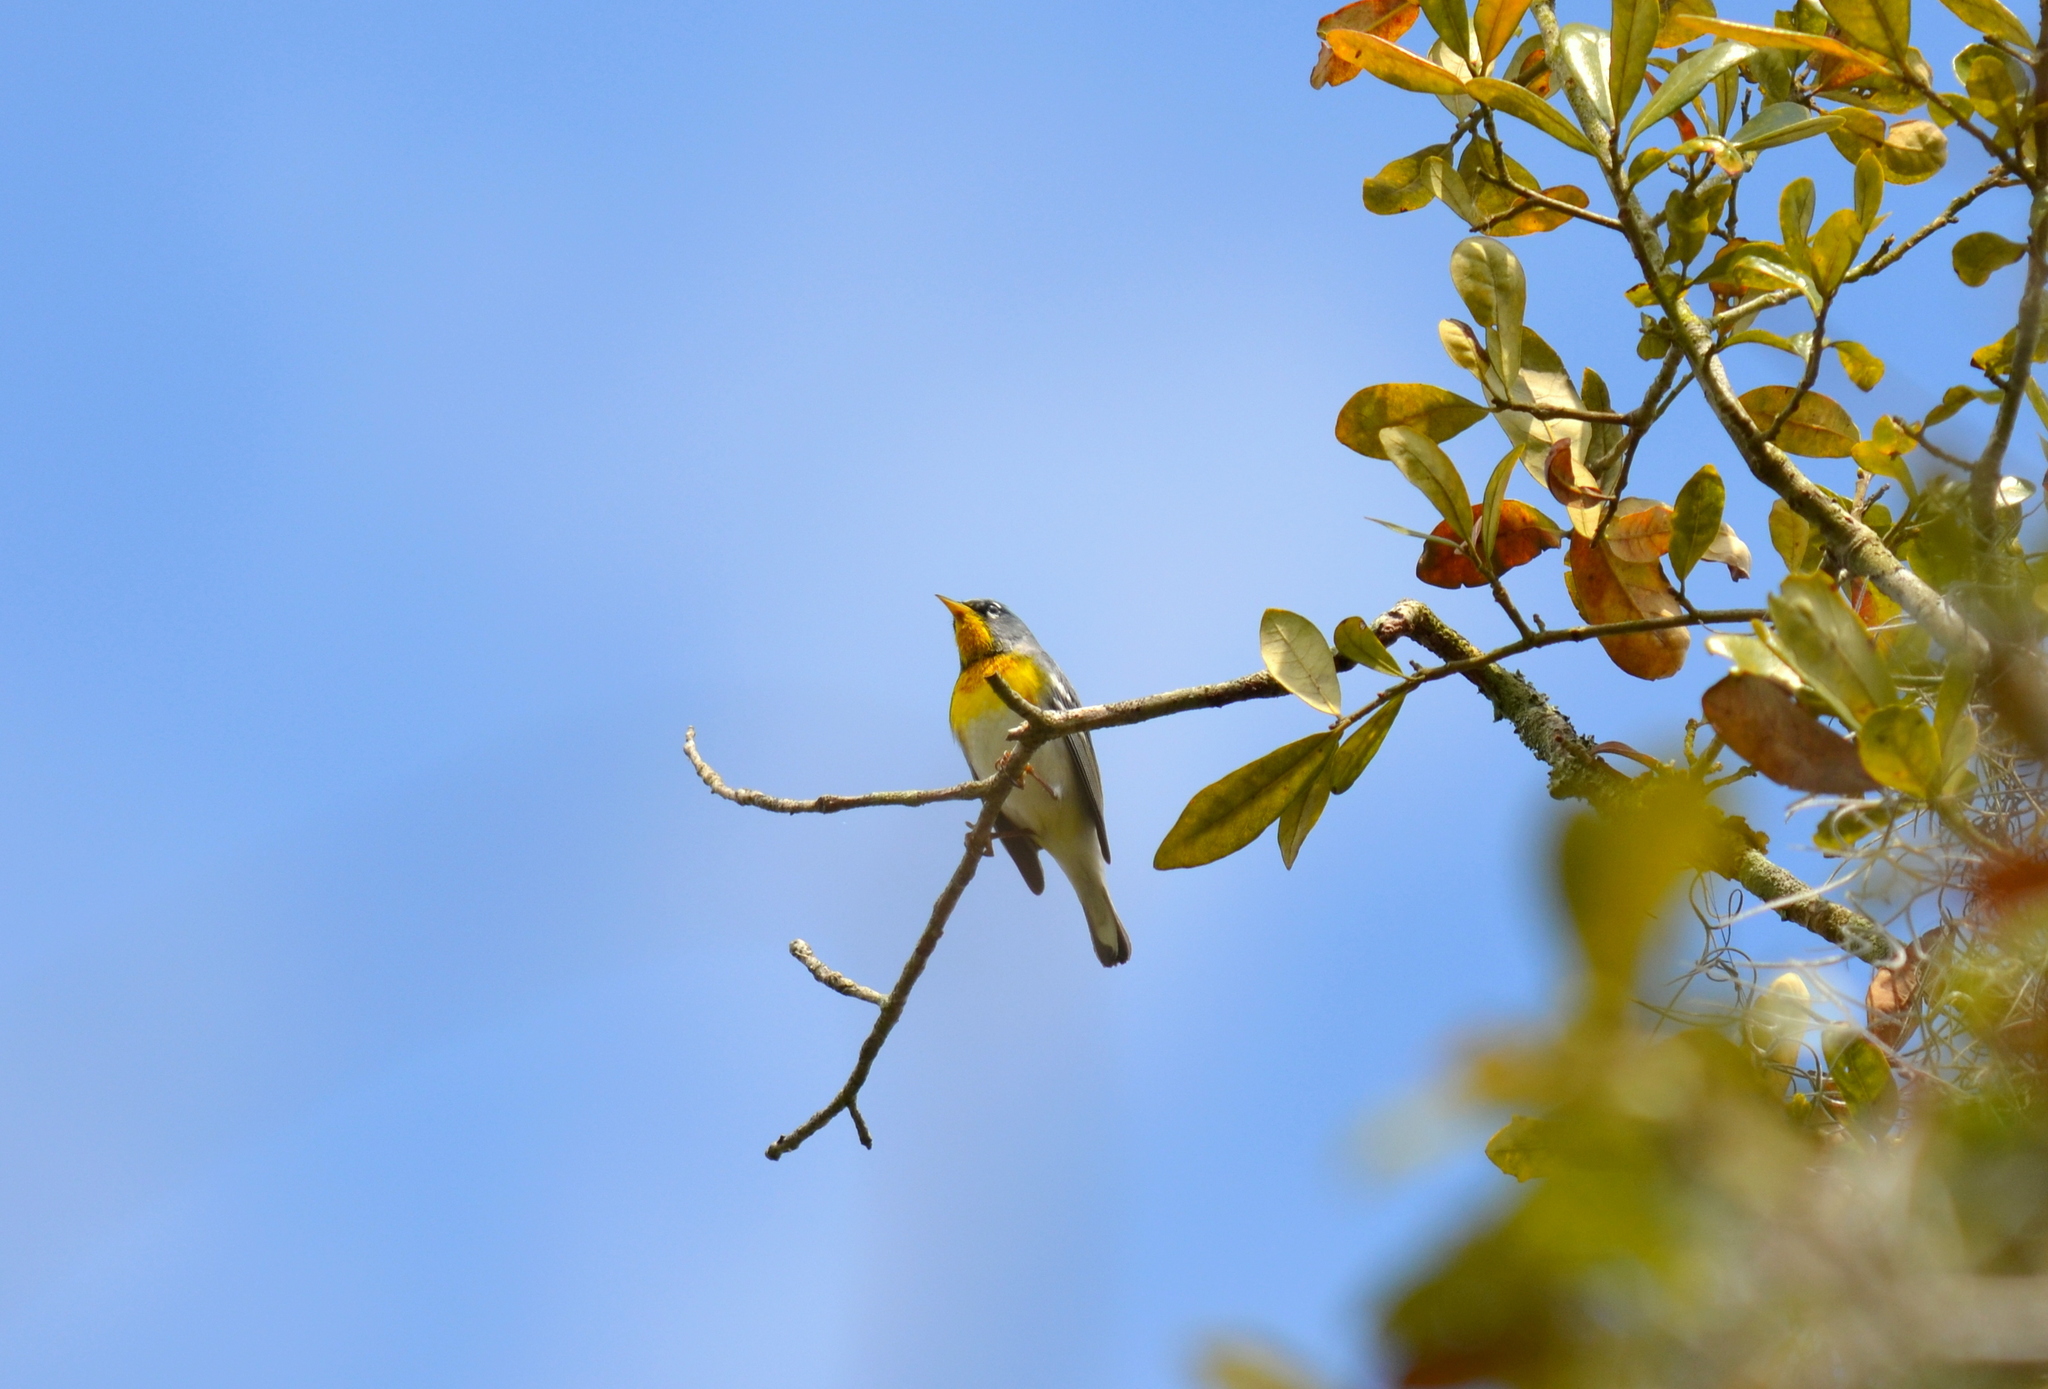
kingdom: Animalia
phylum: Chordata
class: Aves
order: Passeriformes
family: Parulidae
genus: Setophaga
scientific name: Setophaga americana
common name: Northern parula
